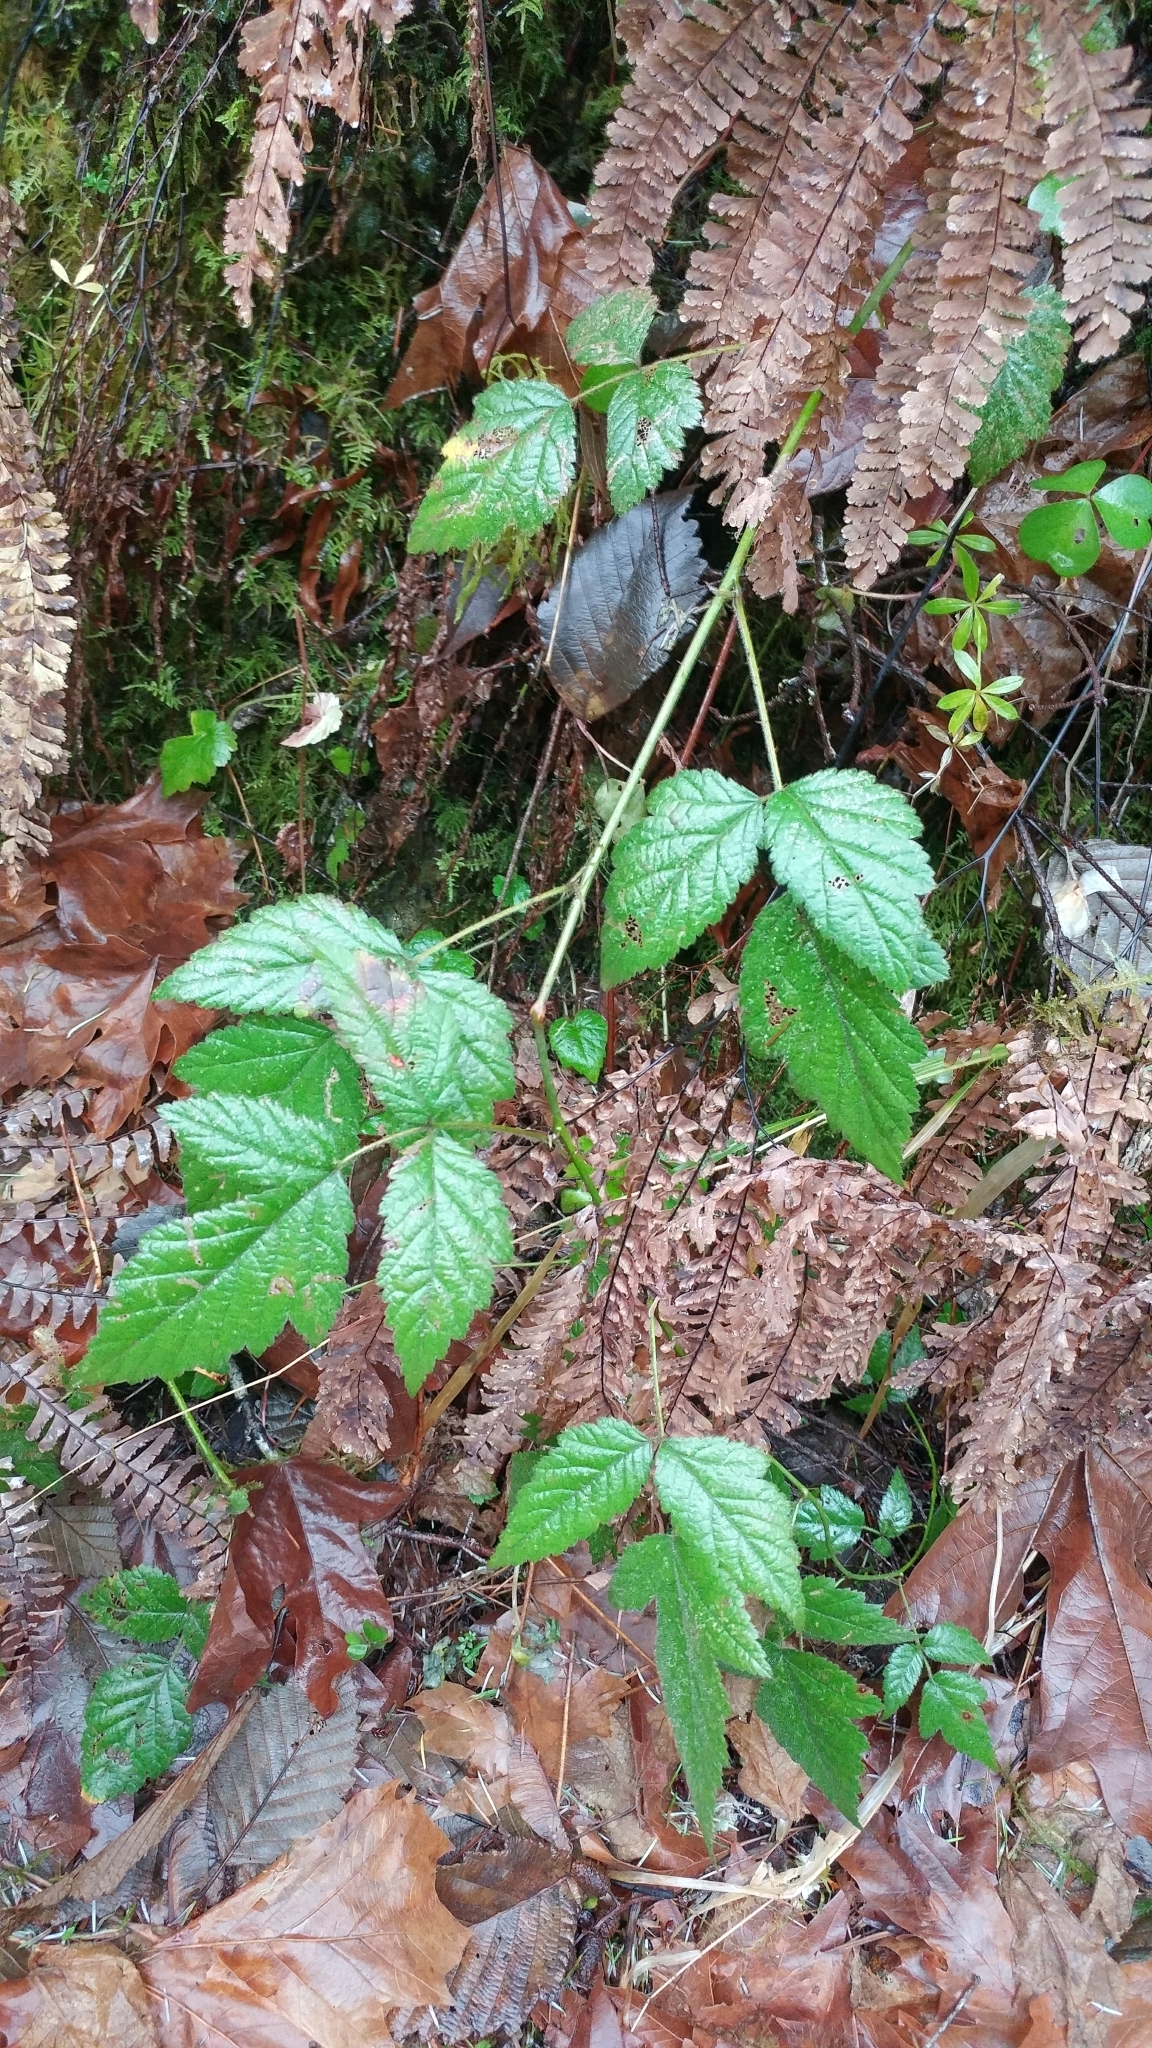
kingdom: Plantae
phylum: Tracheophyta
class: Magnoliopsida
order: Rosales
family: Rosaceae
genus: Rubus
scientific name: Rubus ursinus
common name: Pacific blackberry
